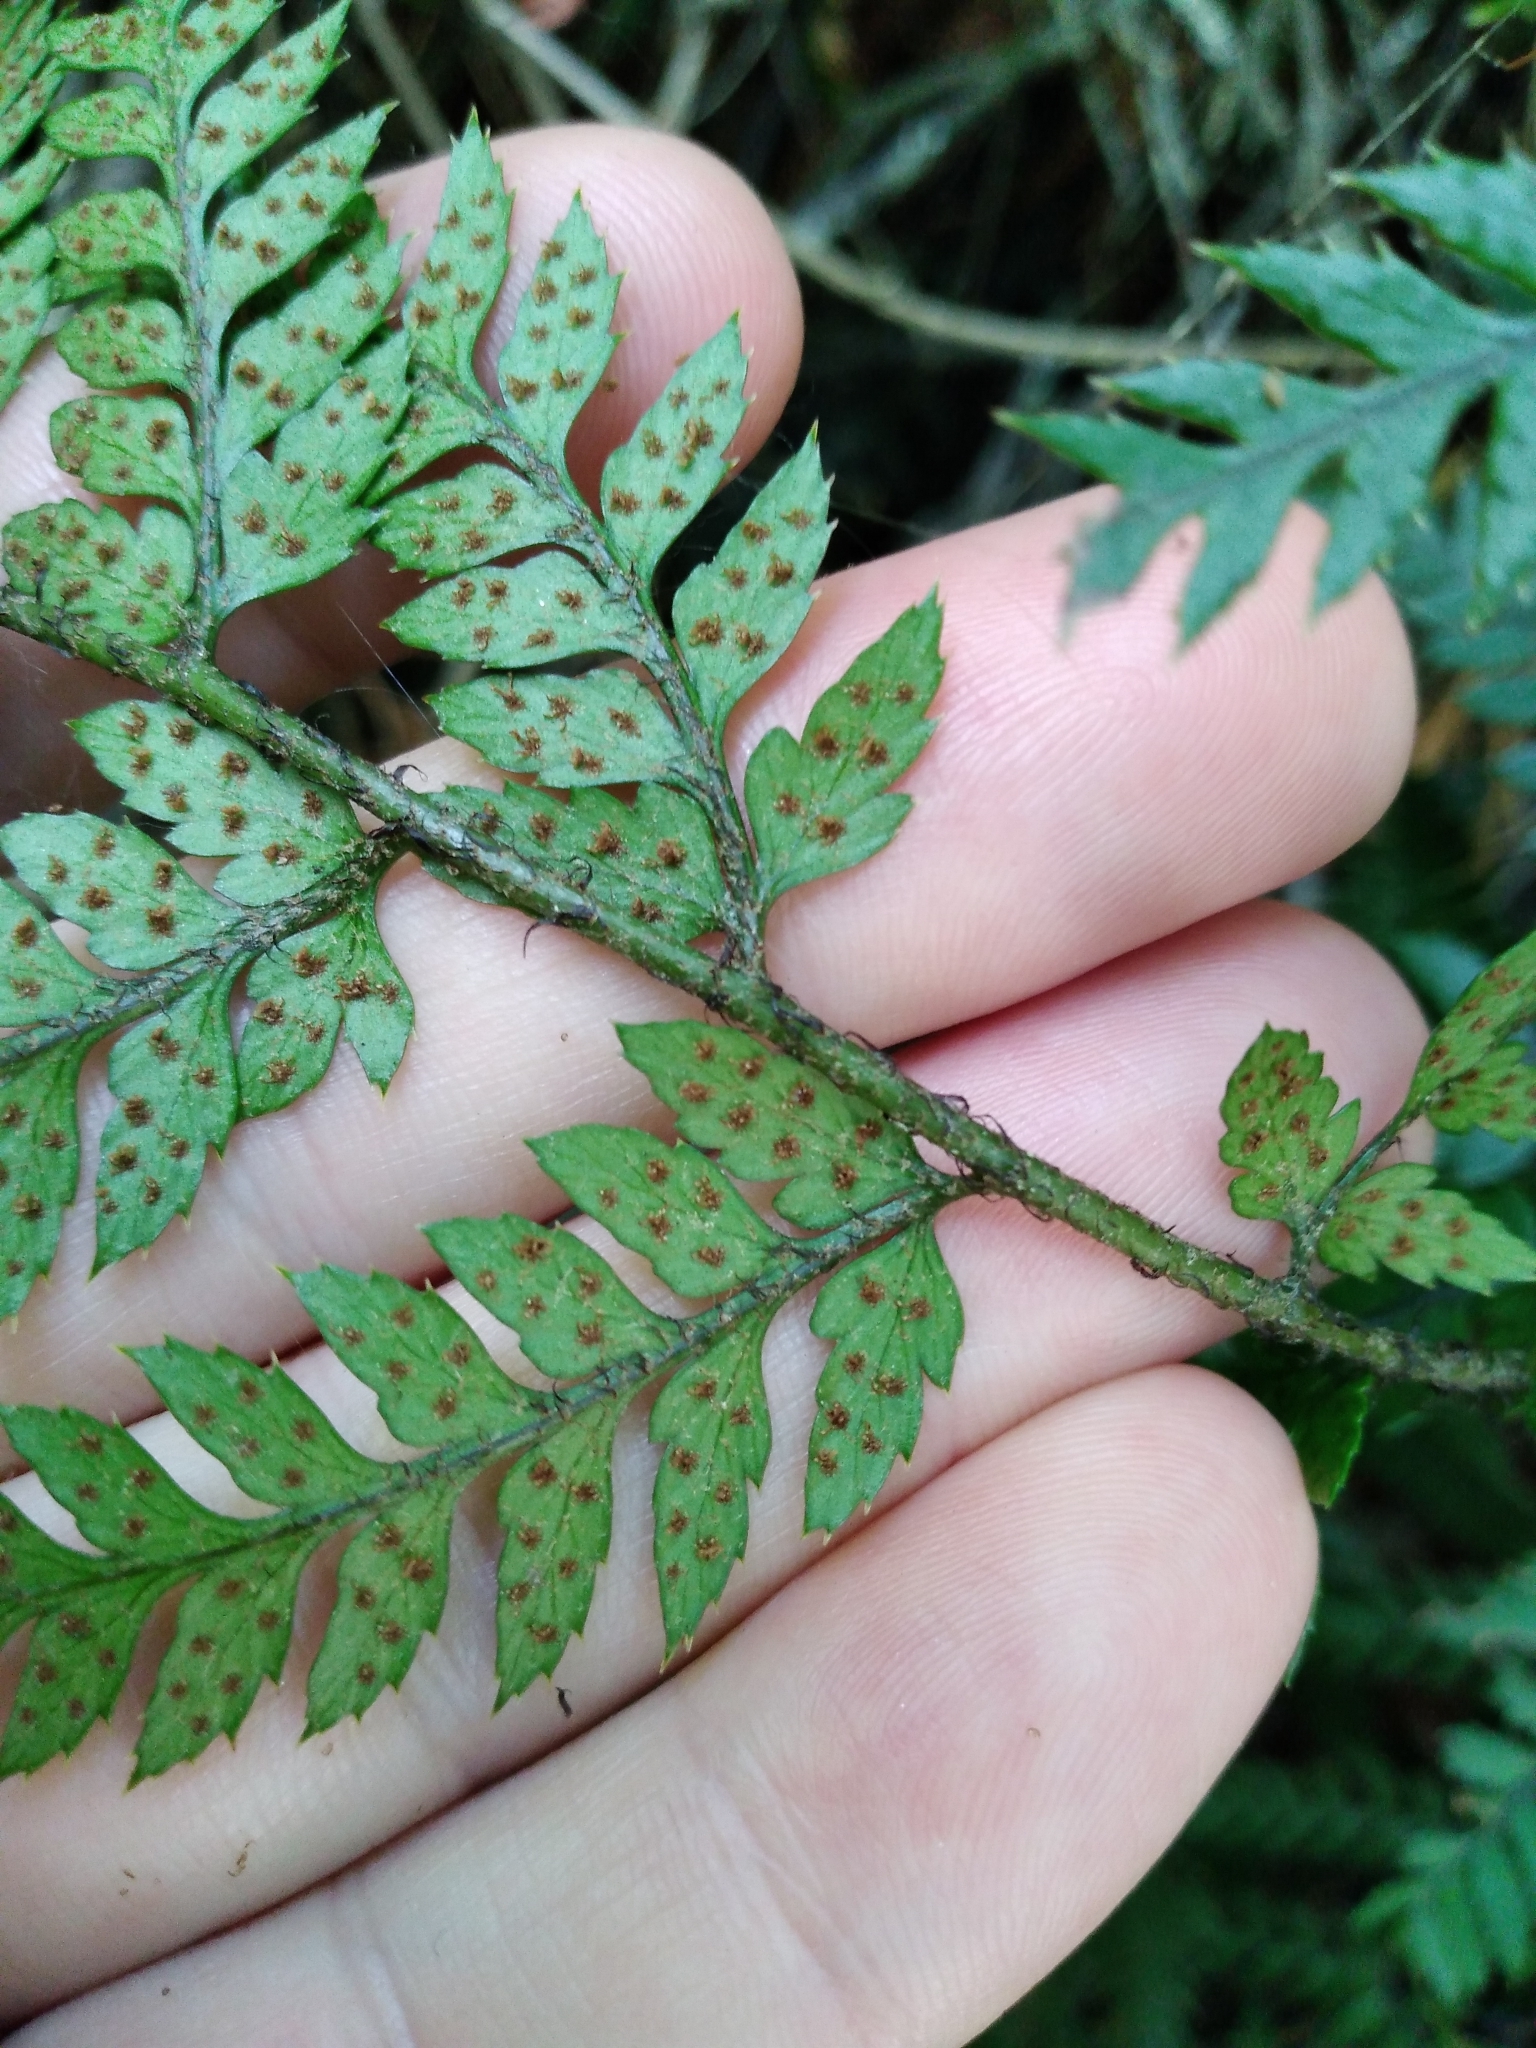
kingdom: Plantae
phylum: Tracheophyta
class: Polypodiopsida
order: Polypodiales
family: Dryopteridaceae
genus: Polystichum
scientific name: Polystichum neozelandicum
